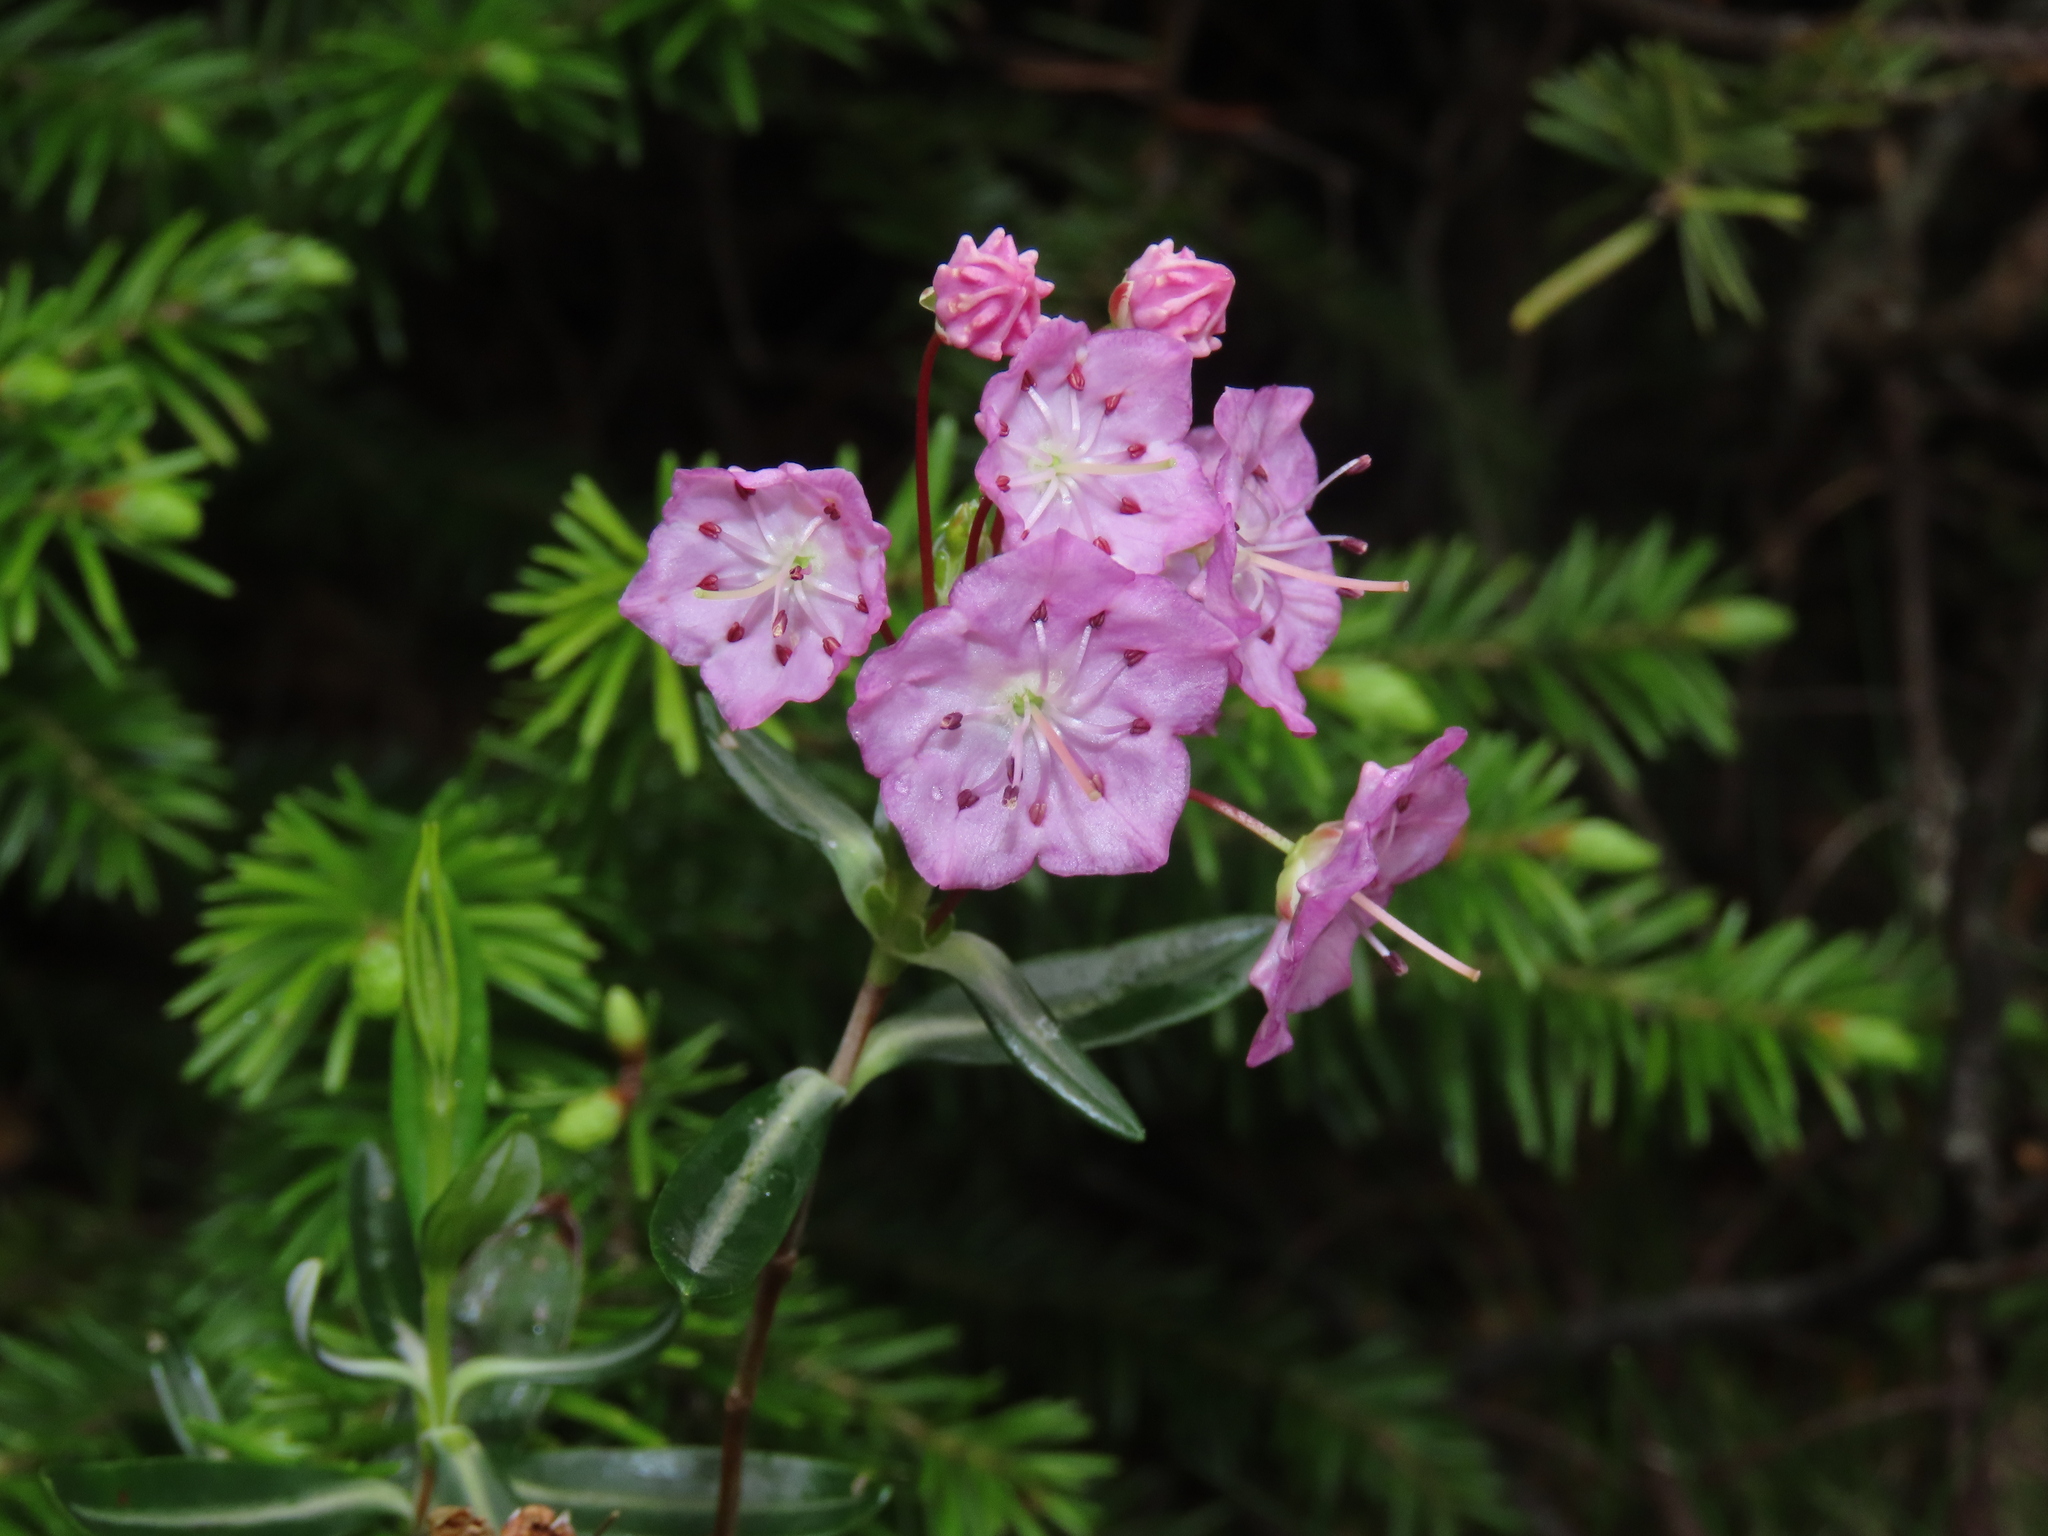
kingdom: Plantae
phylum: Tracheophyta
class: Magnoliopsida
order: Ericales
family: Ericaceae
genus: Kalmia
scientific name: Kalmia polifolia
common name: Bog-laurel
